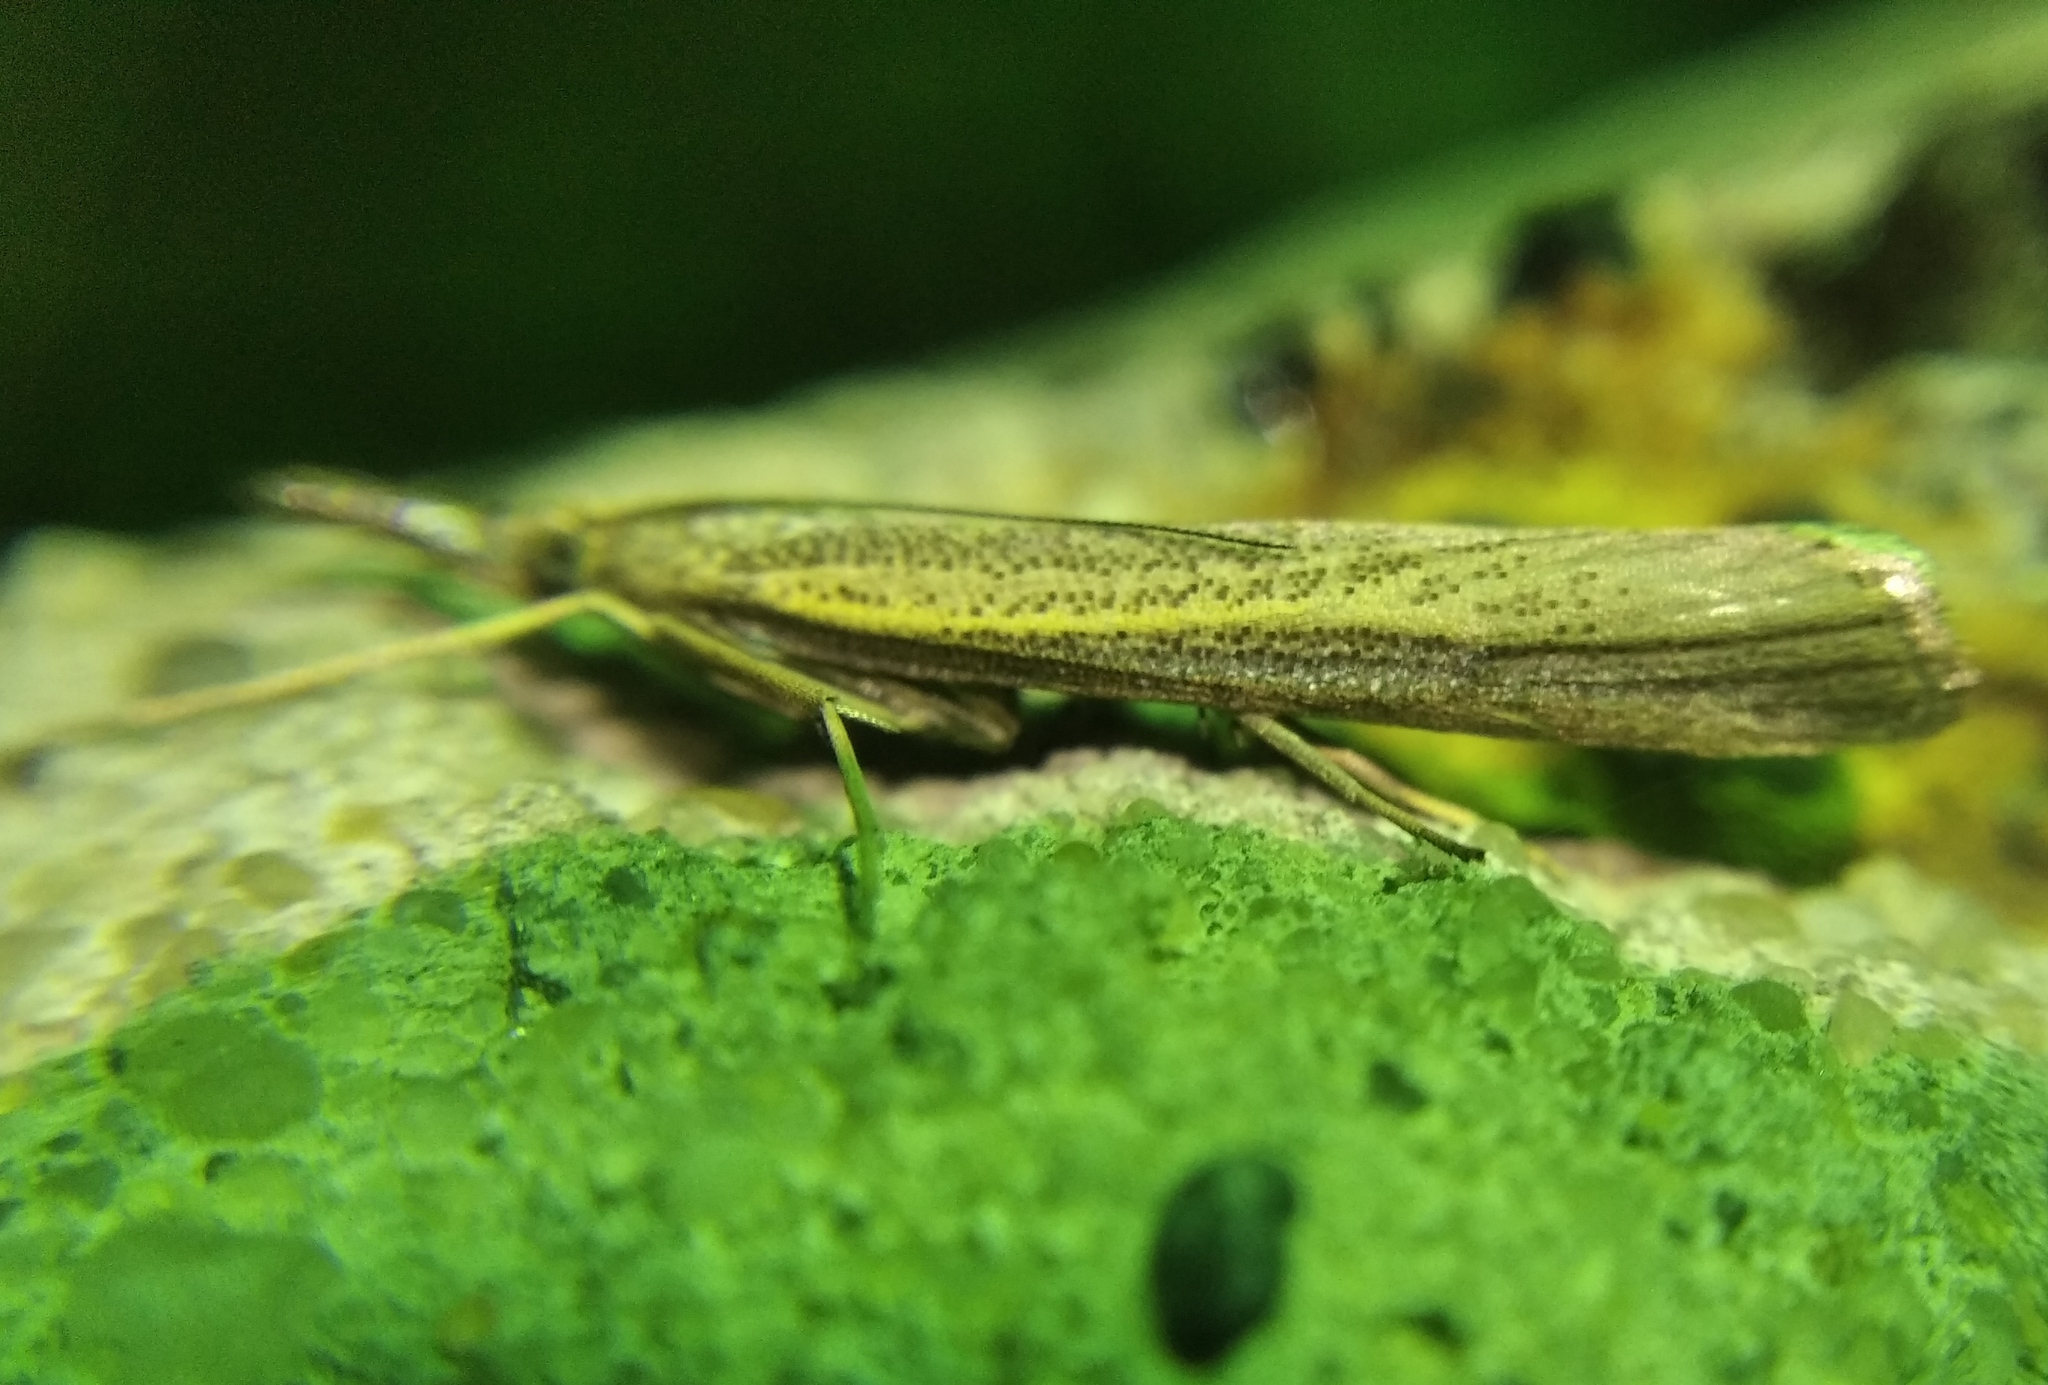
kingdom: Animalia
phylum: Arthropoda
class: Insecta
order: Lepidoptera
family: Crambidae
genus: Agriphila
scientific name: Agriphila poliellus
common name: Grey grass-veneer
